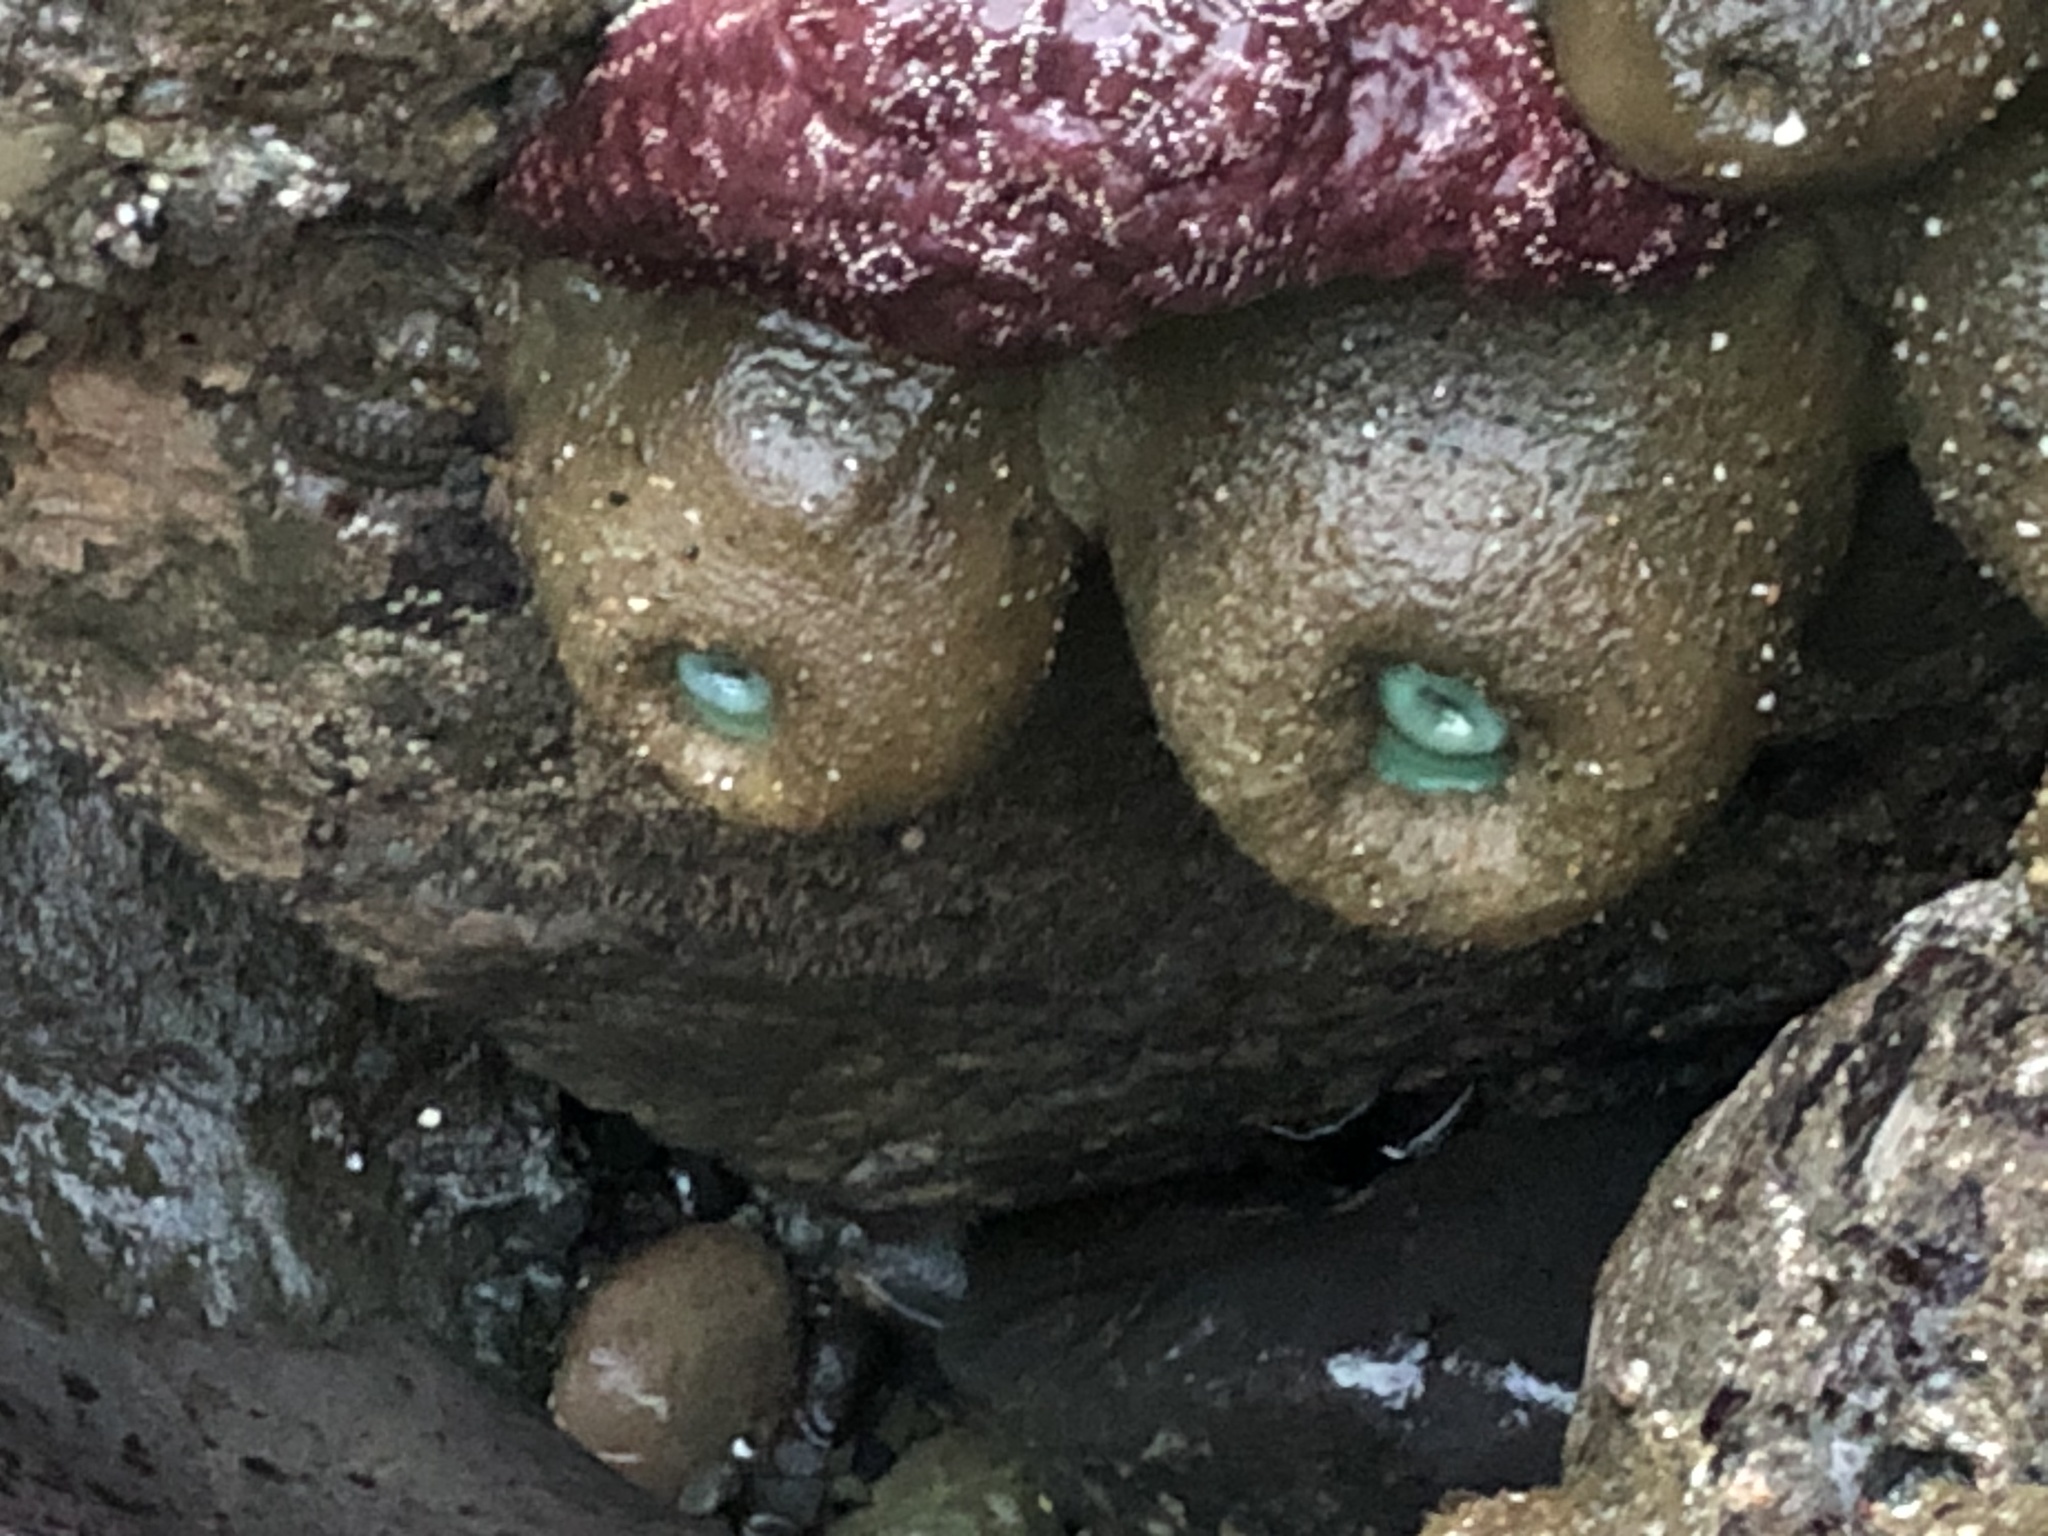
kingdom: Animalia
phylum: Cnidaria
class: Anthozoa
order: Actiniaria
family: Actiniidae
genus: Anthopleura
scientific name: Anthopleura xanthogrammica
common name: Giant green anemone
